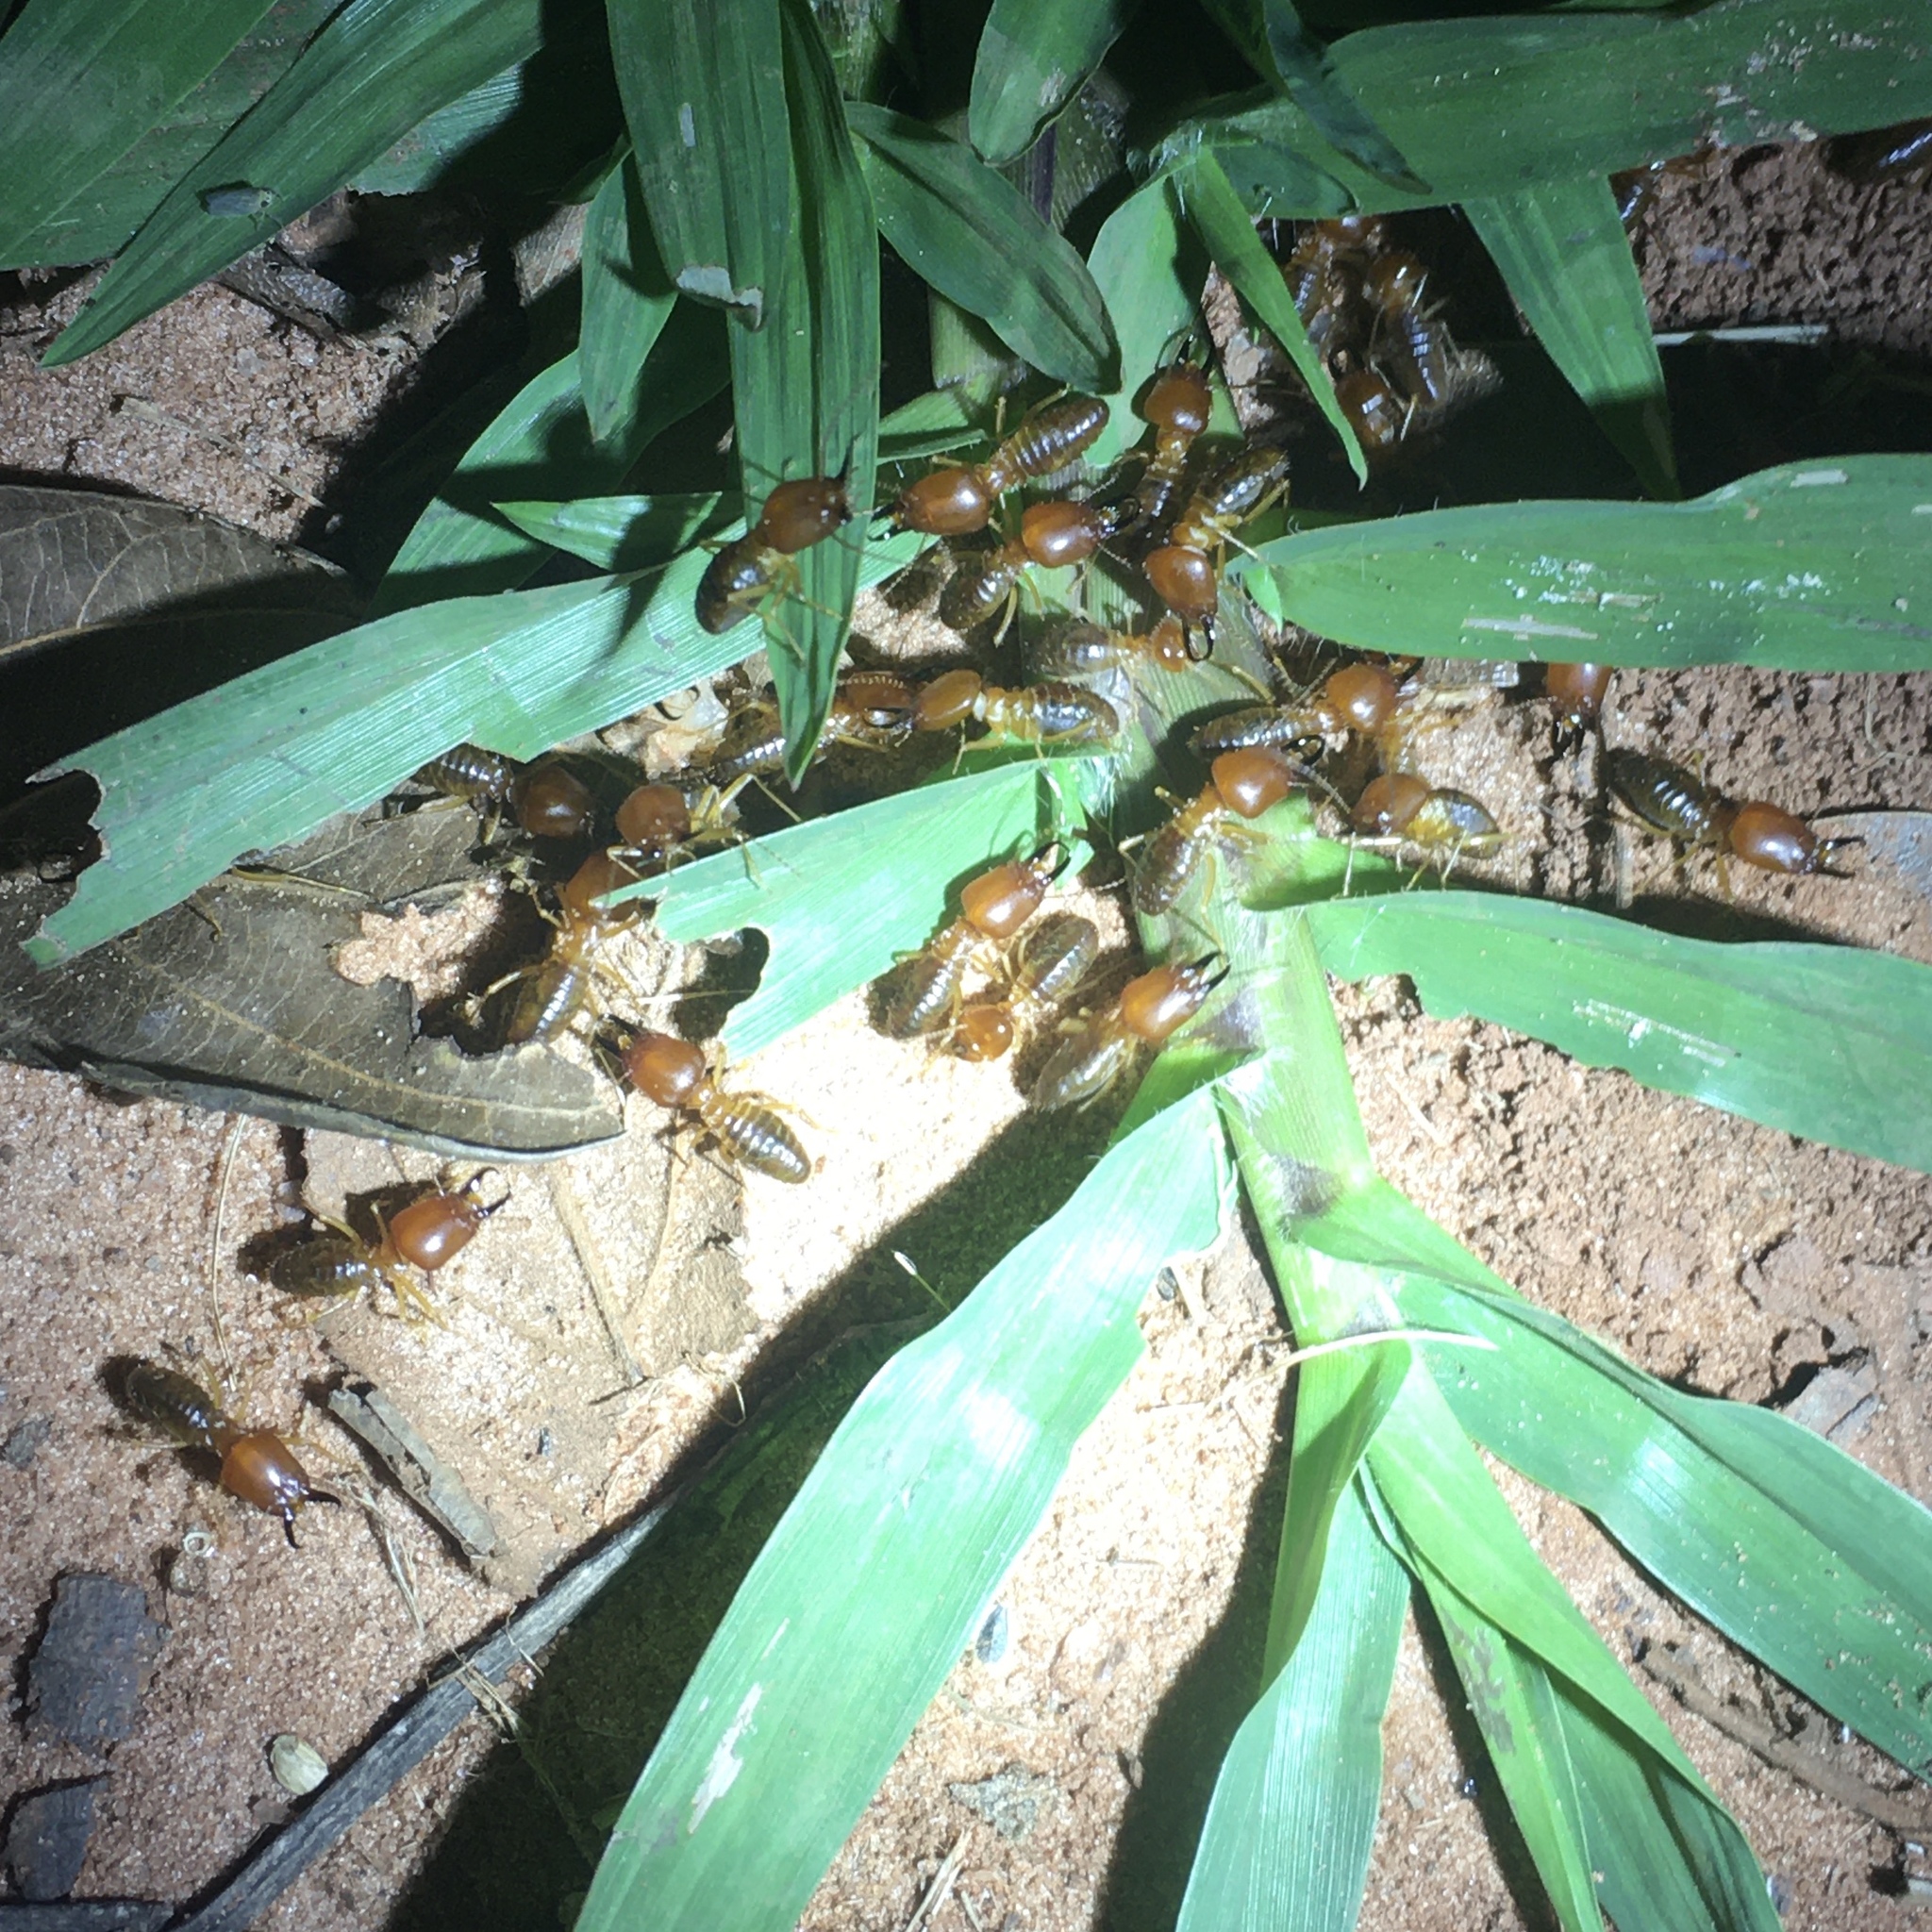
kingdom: Animalia
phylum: Arthropoda
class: Insecta
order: Blattodea
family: Termitidae
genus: Syntermes
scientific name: Syntermes nanus
